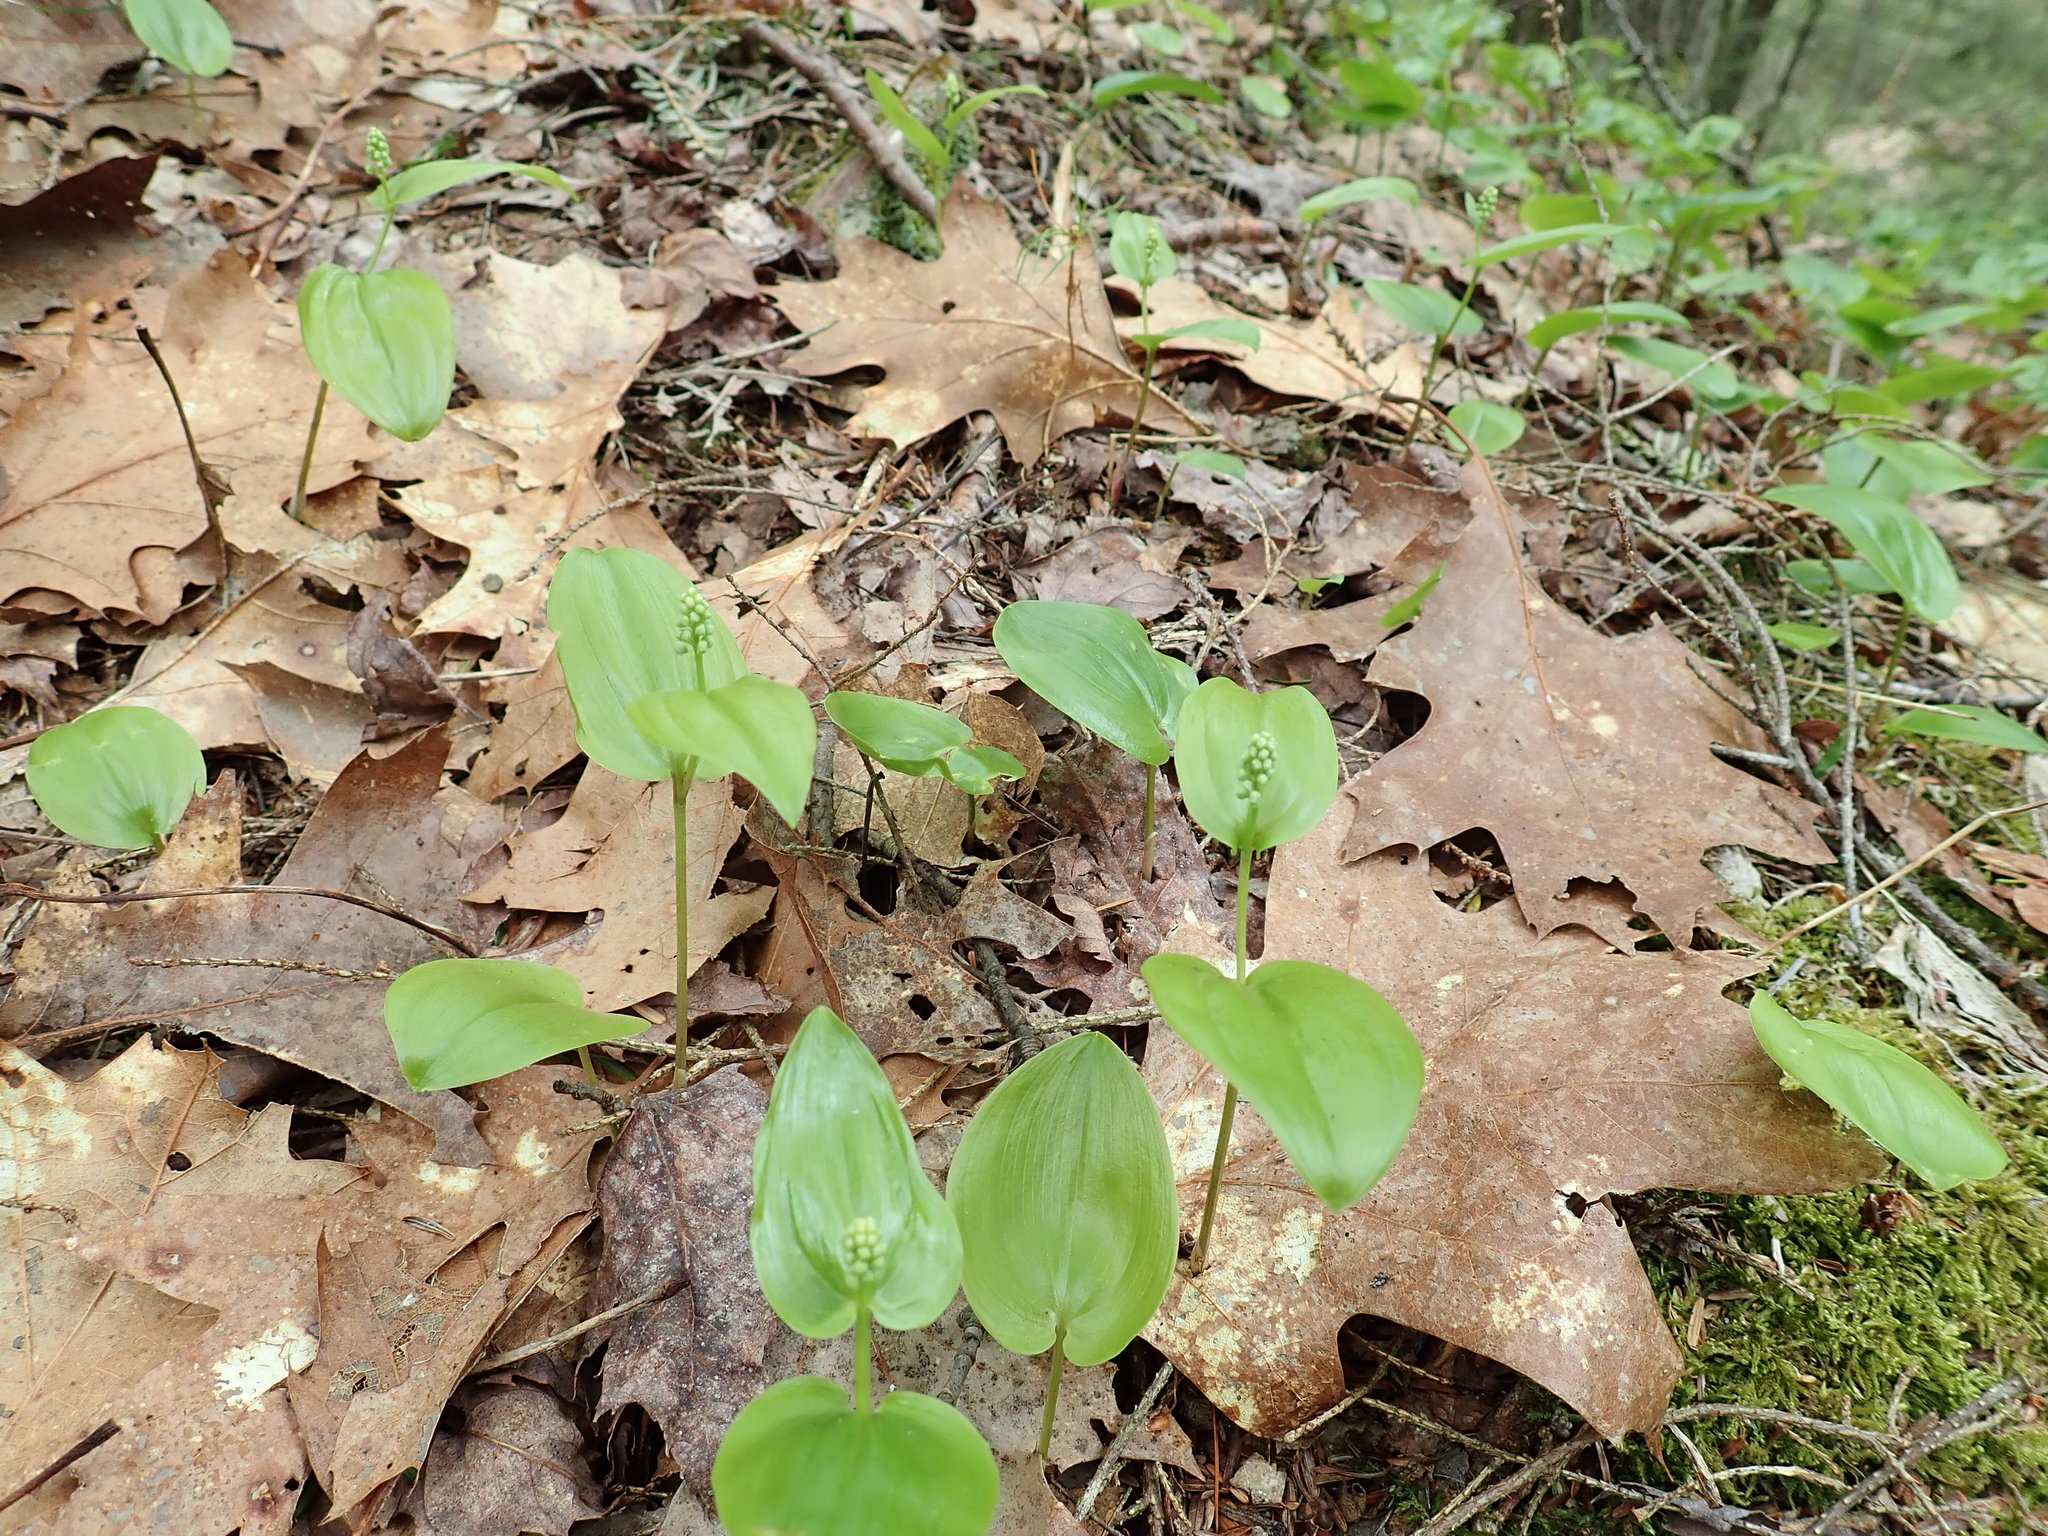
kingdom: Plantae
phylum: Tracheophyta
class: Liliopsida
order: Asparagales
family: Asparagaceae
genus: Maianthemum
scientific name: Maianthemum canadense
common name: False lily-of-the-valley
